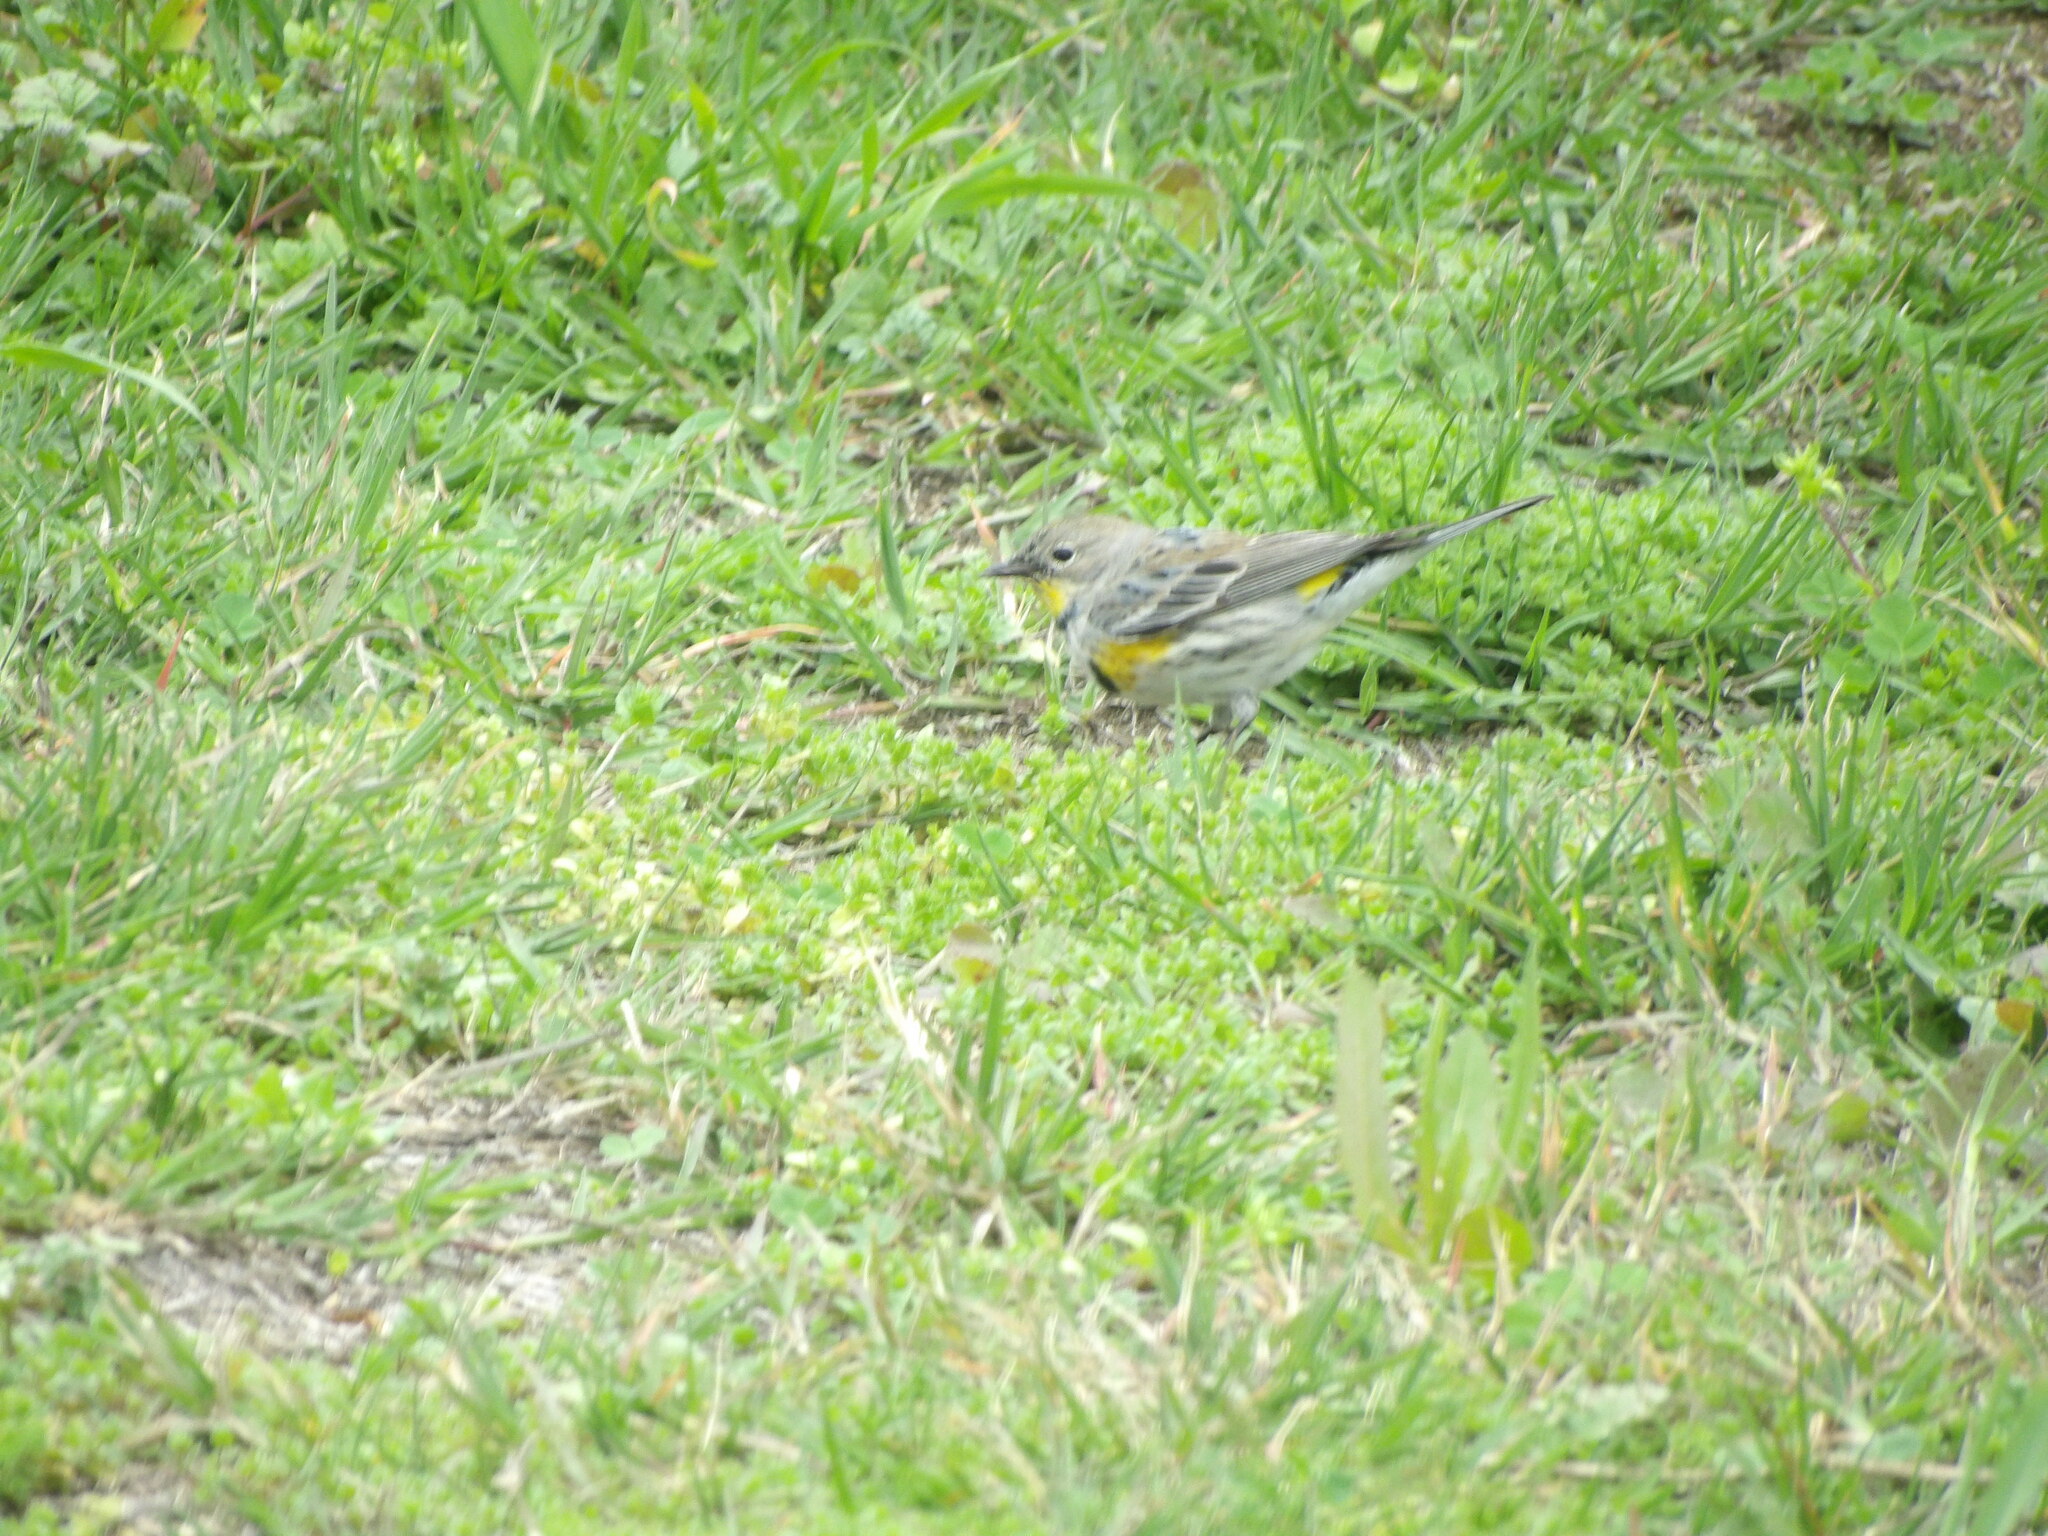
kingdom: Animalia
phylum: Chordata
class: Aves
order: Passeriformes
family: Parulidae
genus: Setophaga
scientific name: Setophaga coronata
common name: Myrtle warbler
